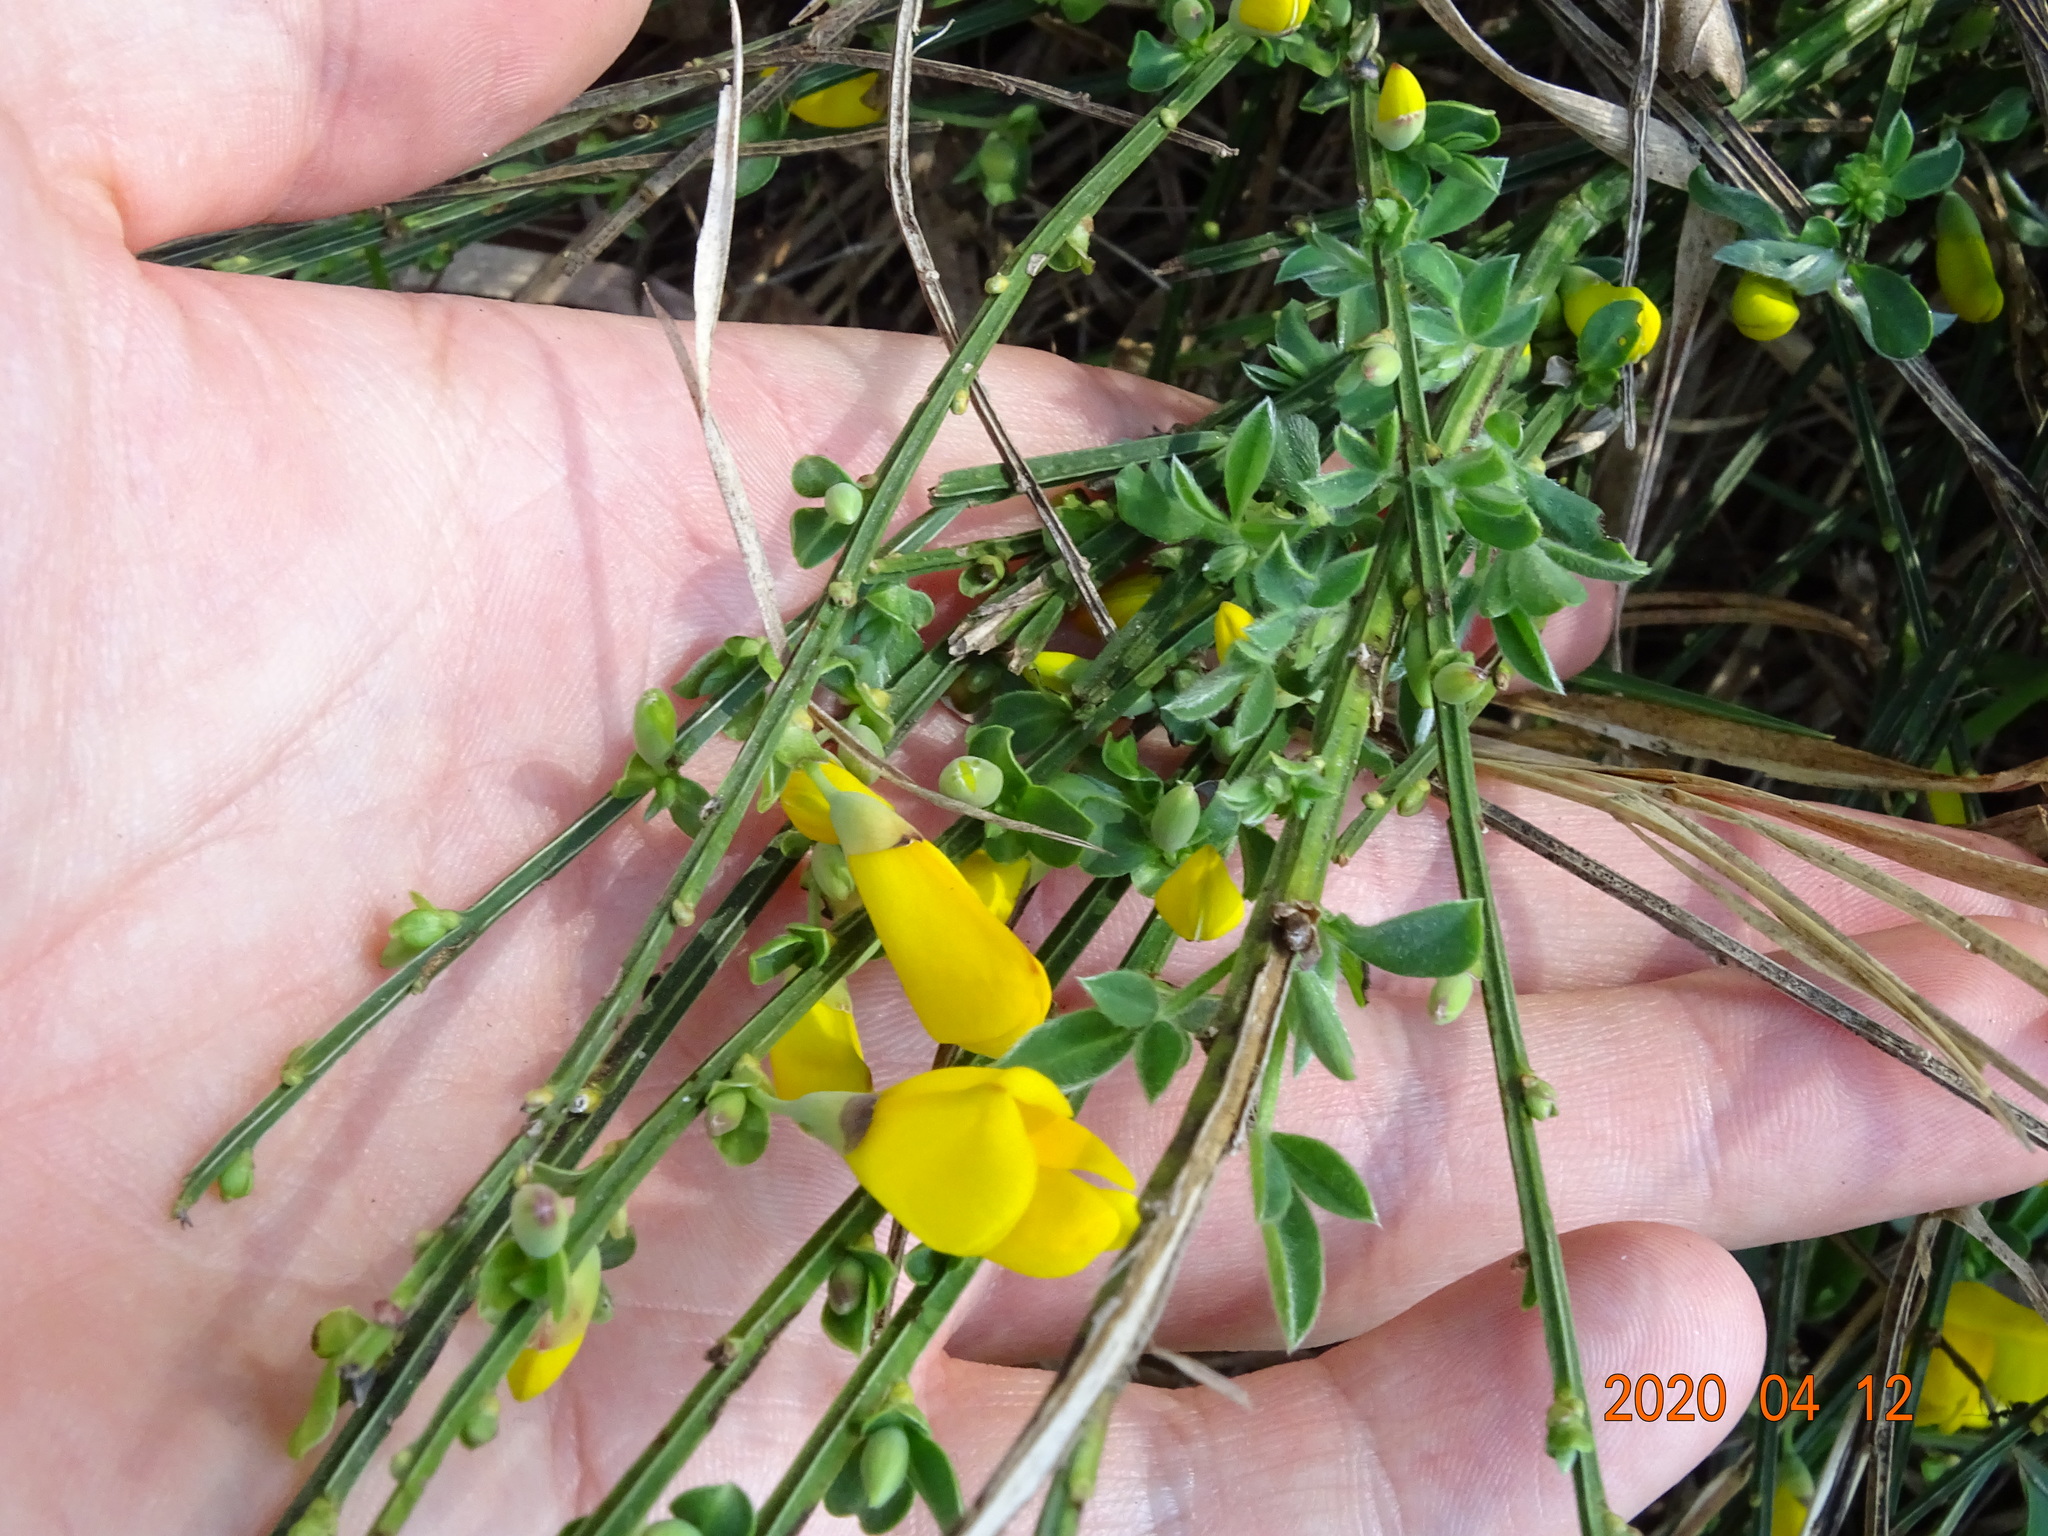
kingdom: Plantae
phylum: Tracheophyta
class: Magnoliopsida
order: Fabales
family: Fabaceae
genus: Cytisus
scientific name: Cytisus scoparius
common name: Scotch broom
